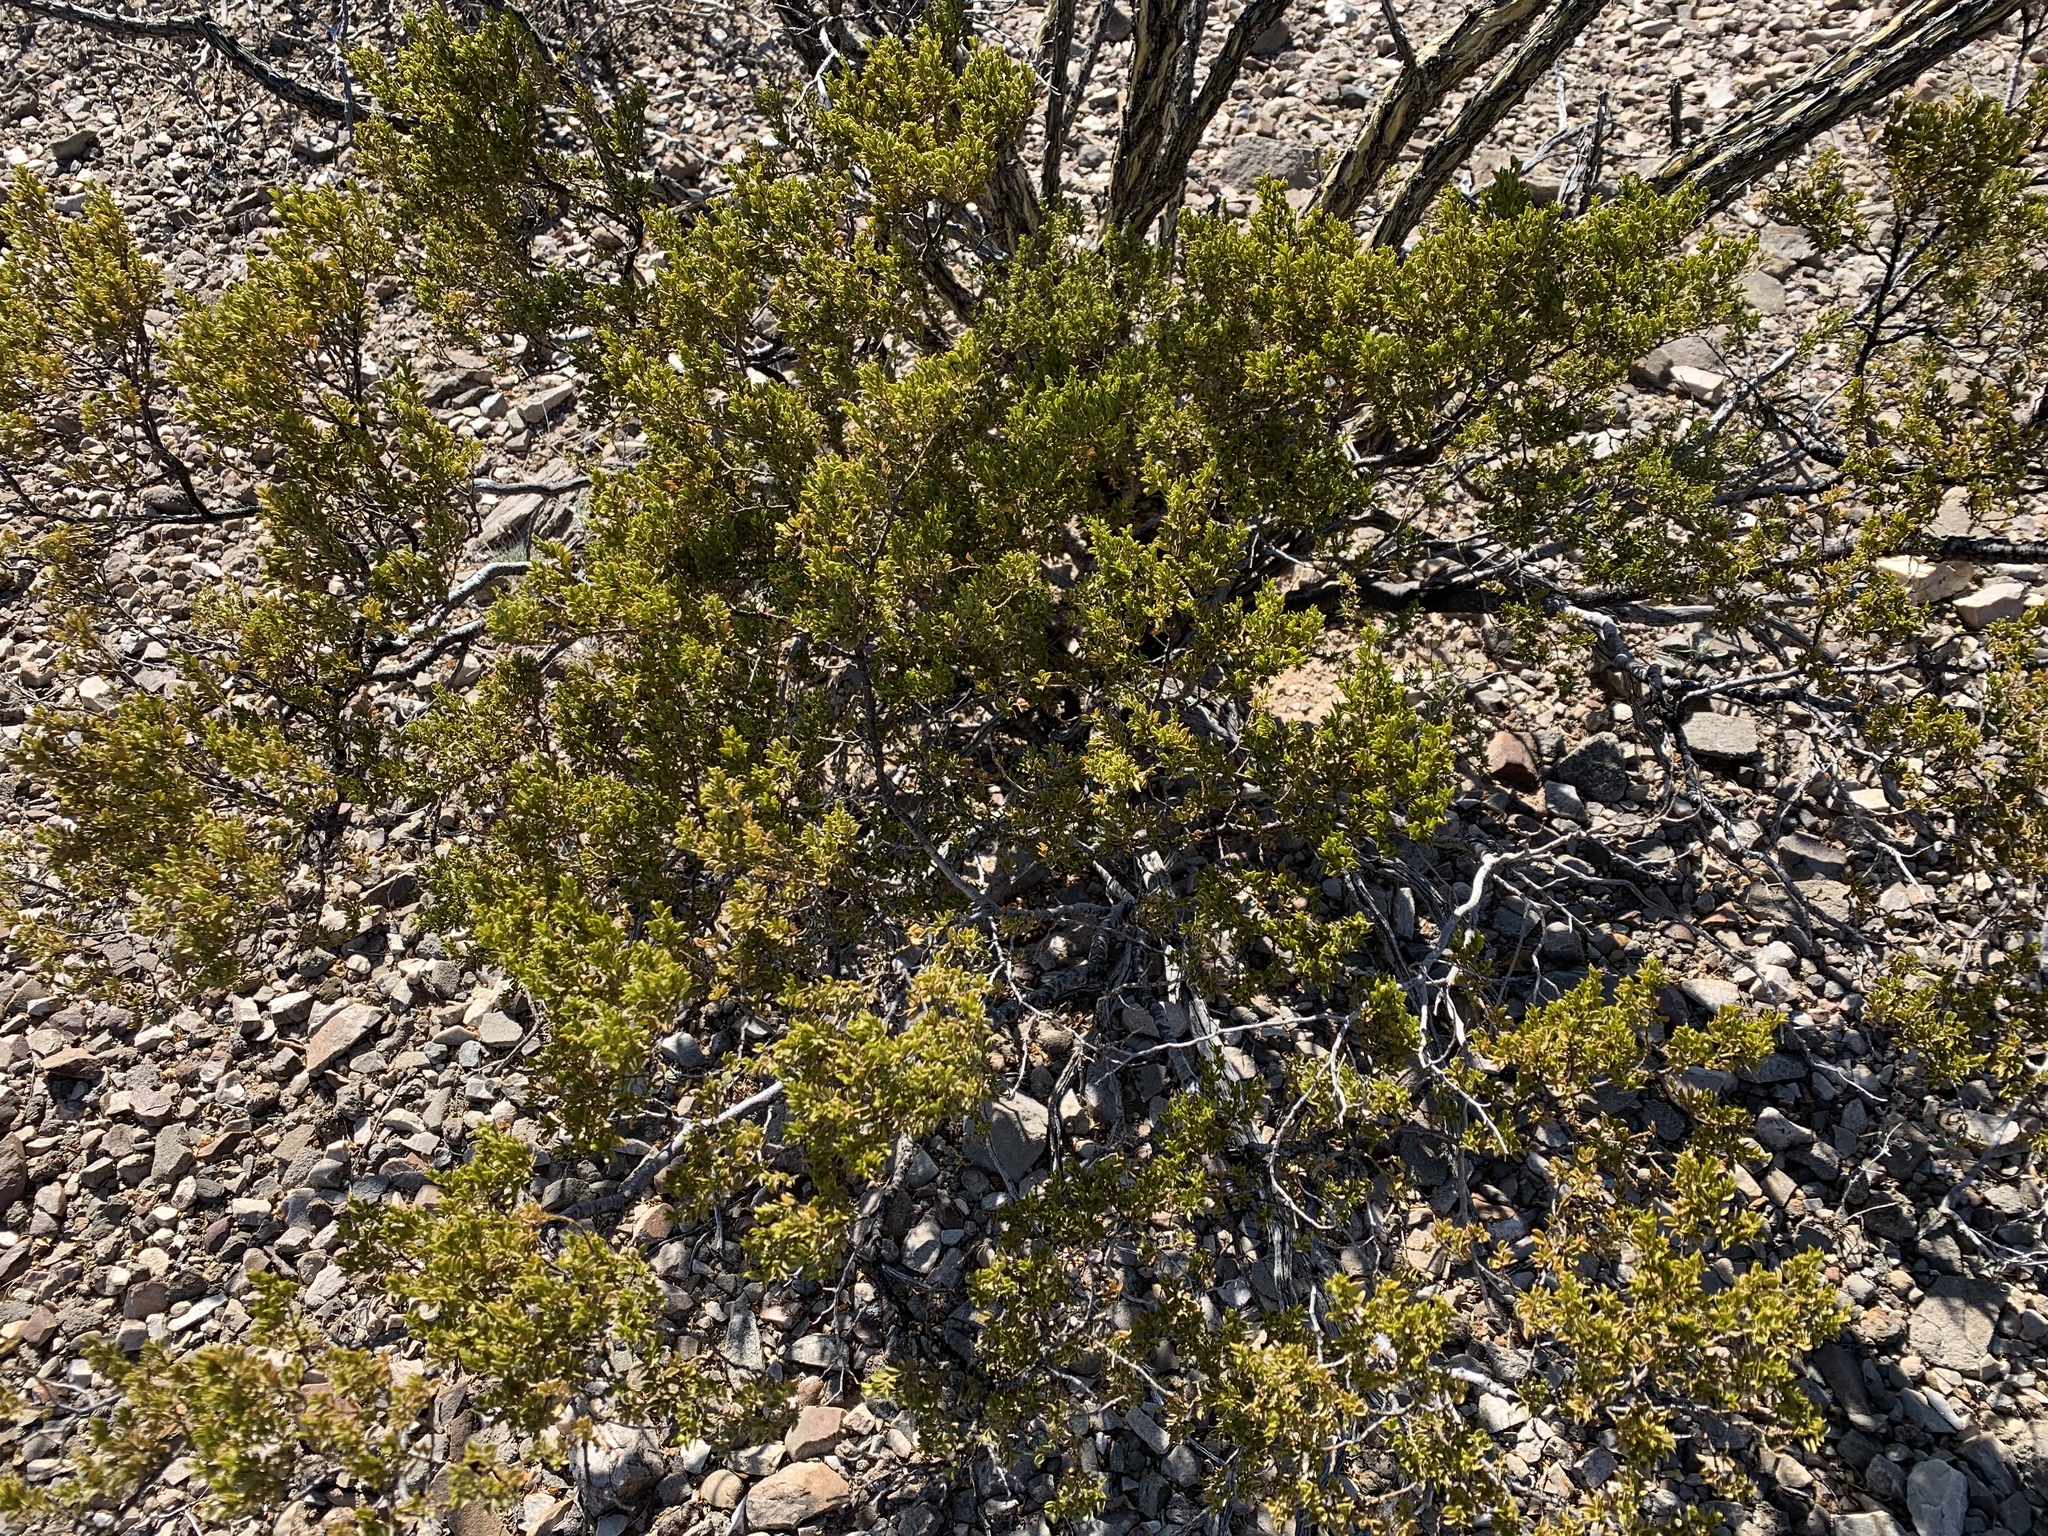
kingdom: Plantae
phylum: Tracheophyta
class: Magnoliopsida
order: Zygophyllales
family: Zygophyllaceae
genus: Larrea
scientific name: Larrea tridentata
